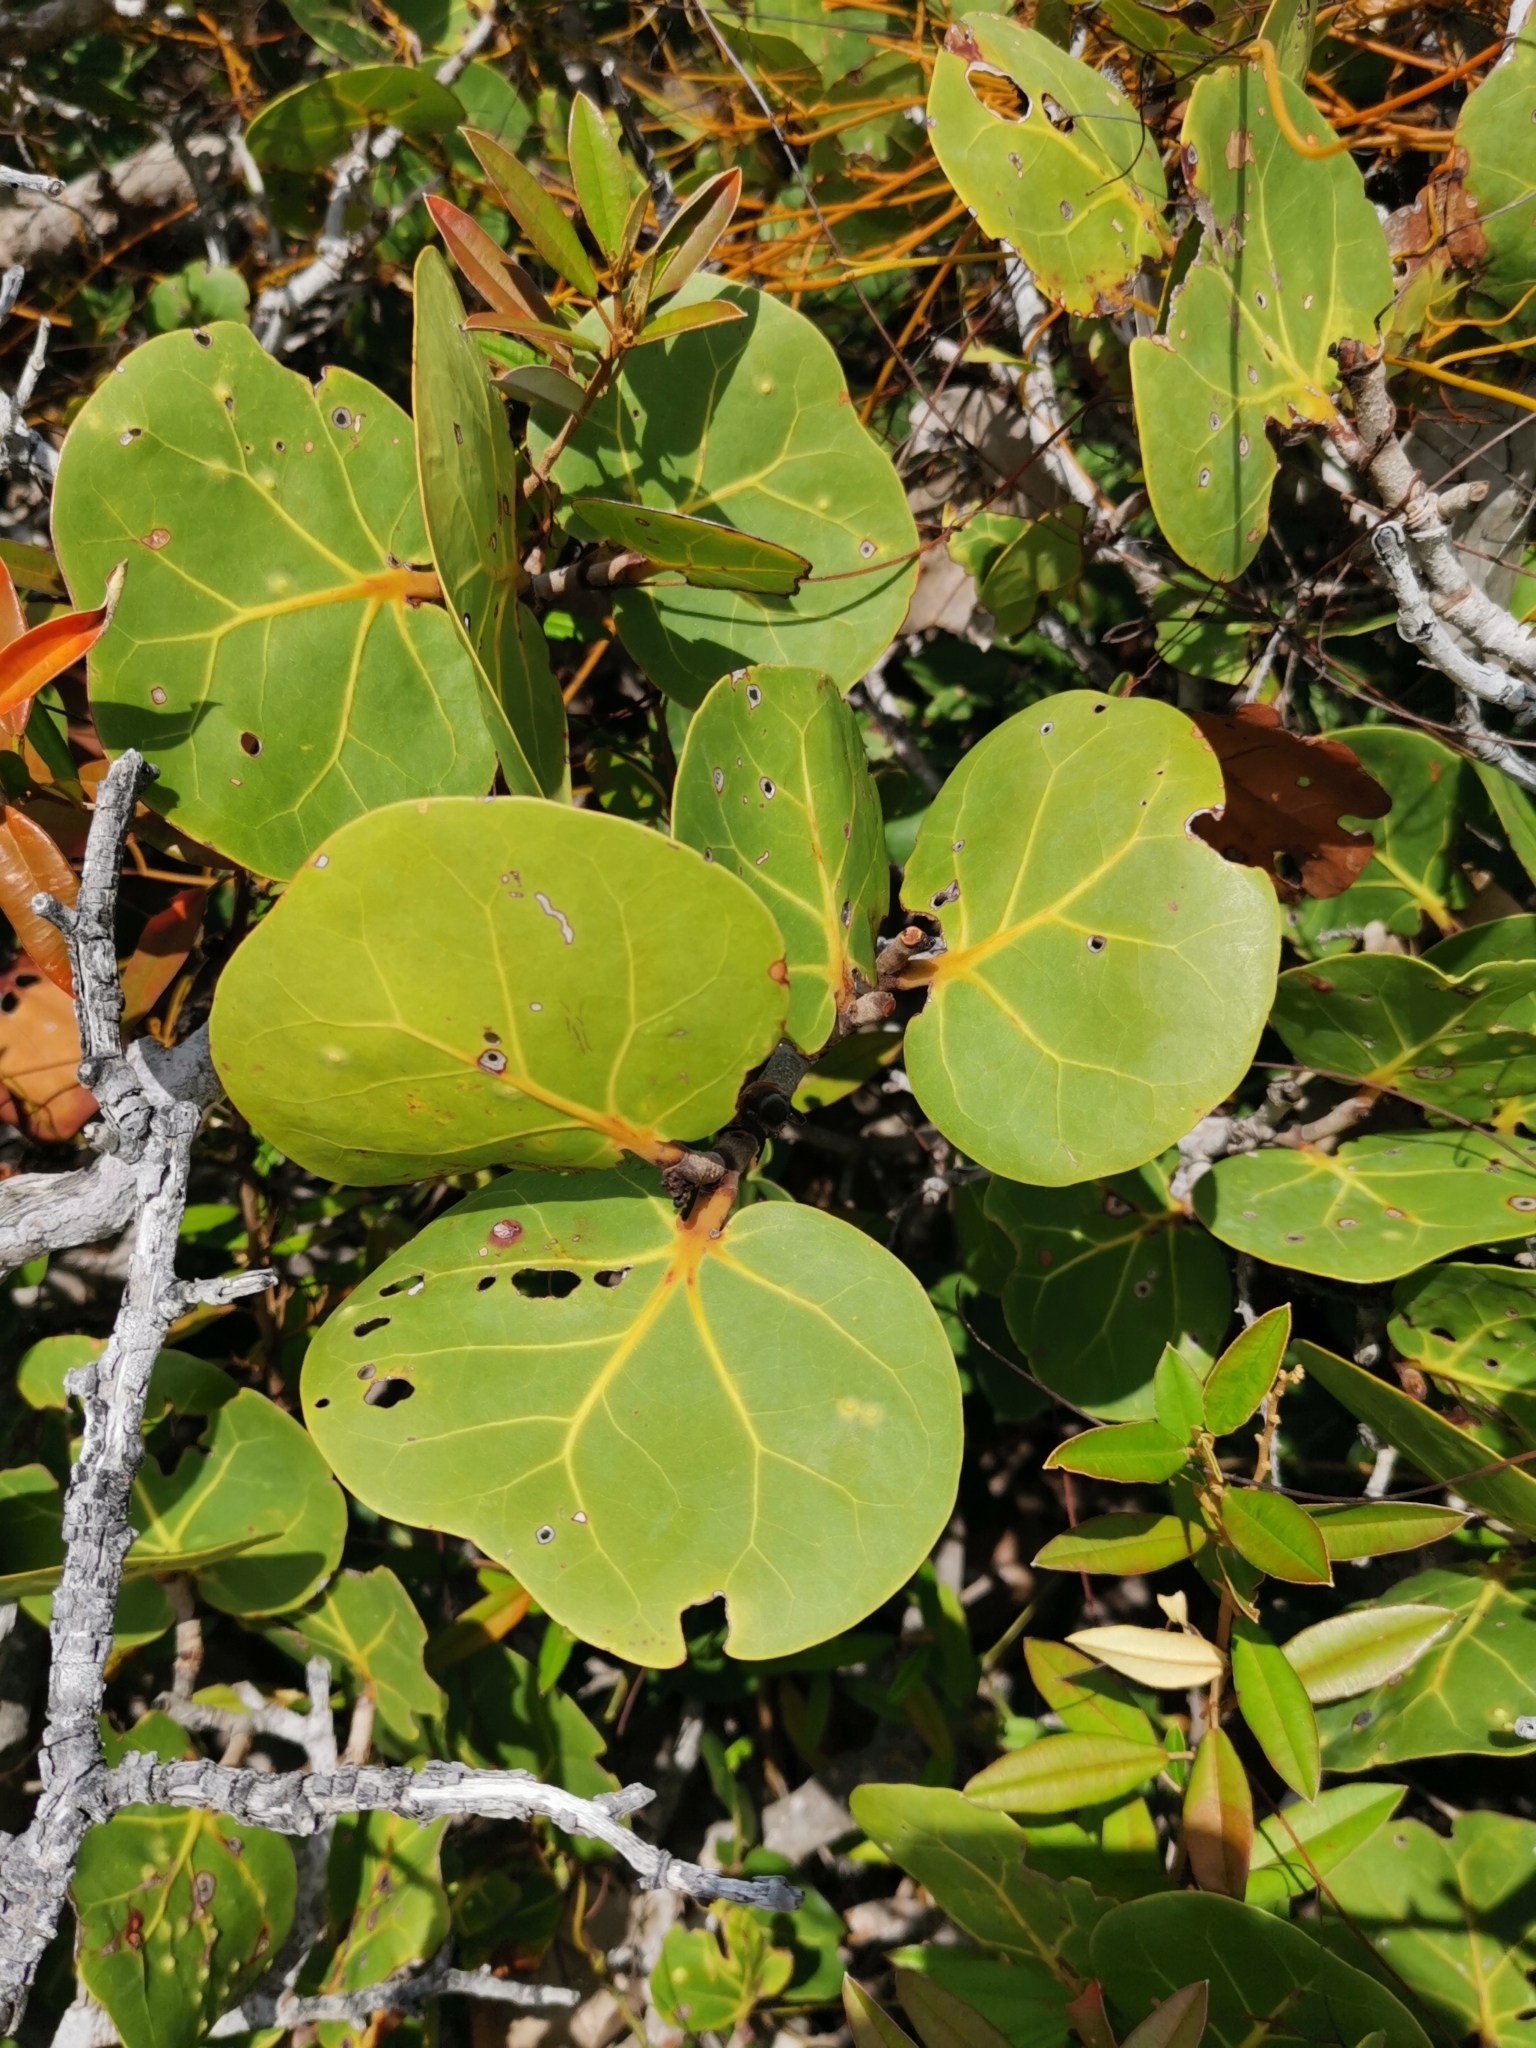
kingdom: Plantae
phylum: Tracheophyta
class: Magnoliopsida
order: Caryophyllales
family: Polygonaceae
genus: Coccoloba
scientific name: Coccoloba uvifera
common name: Seagrape
